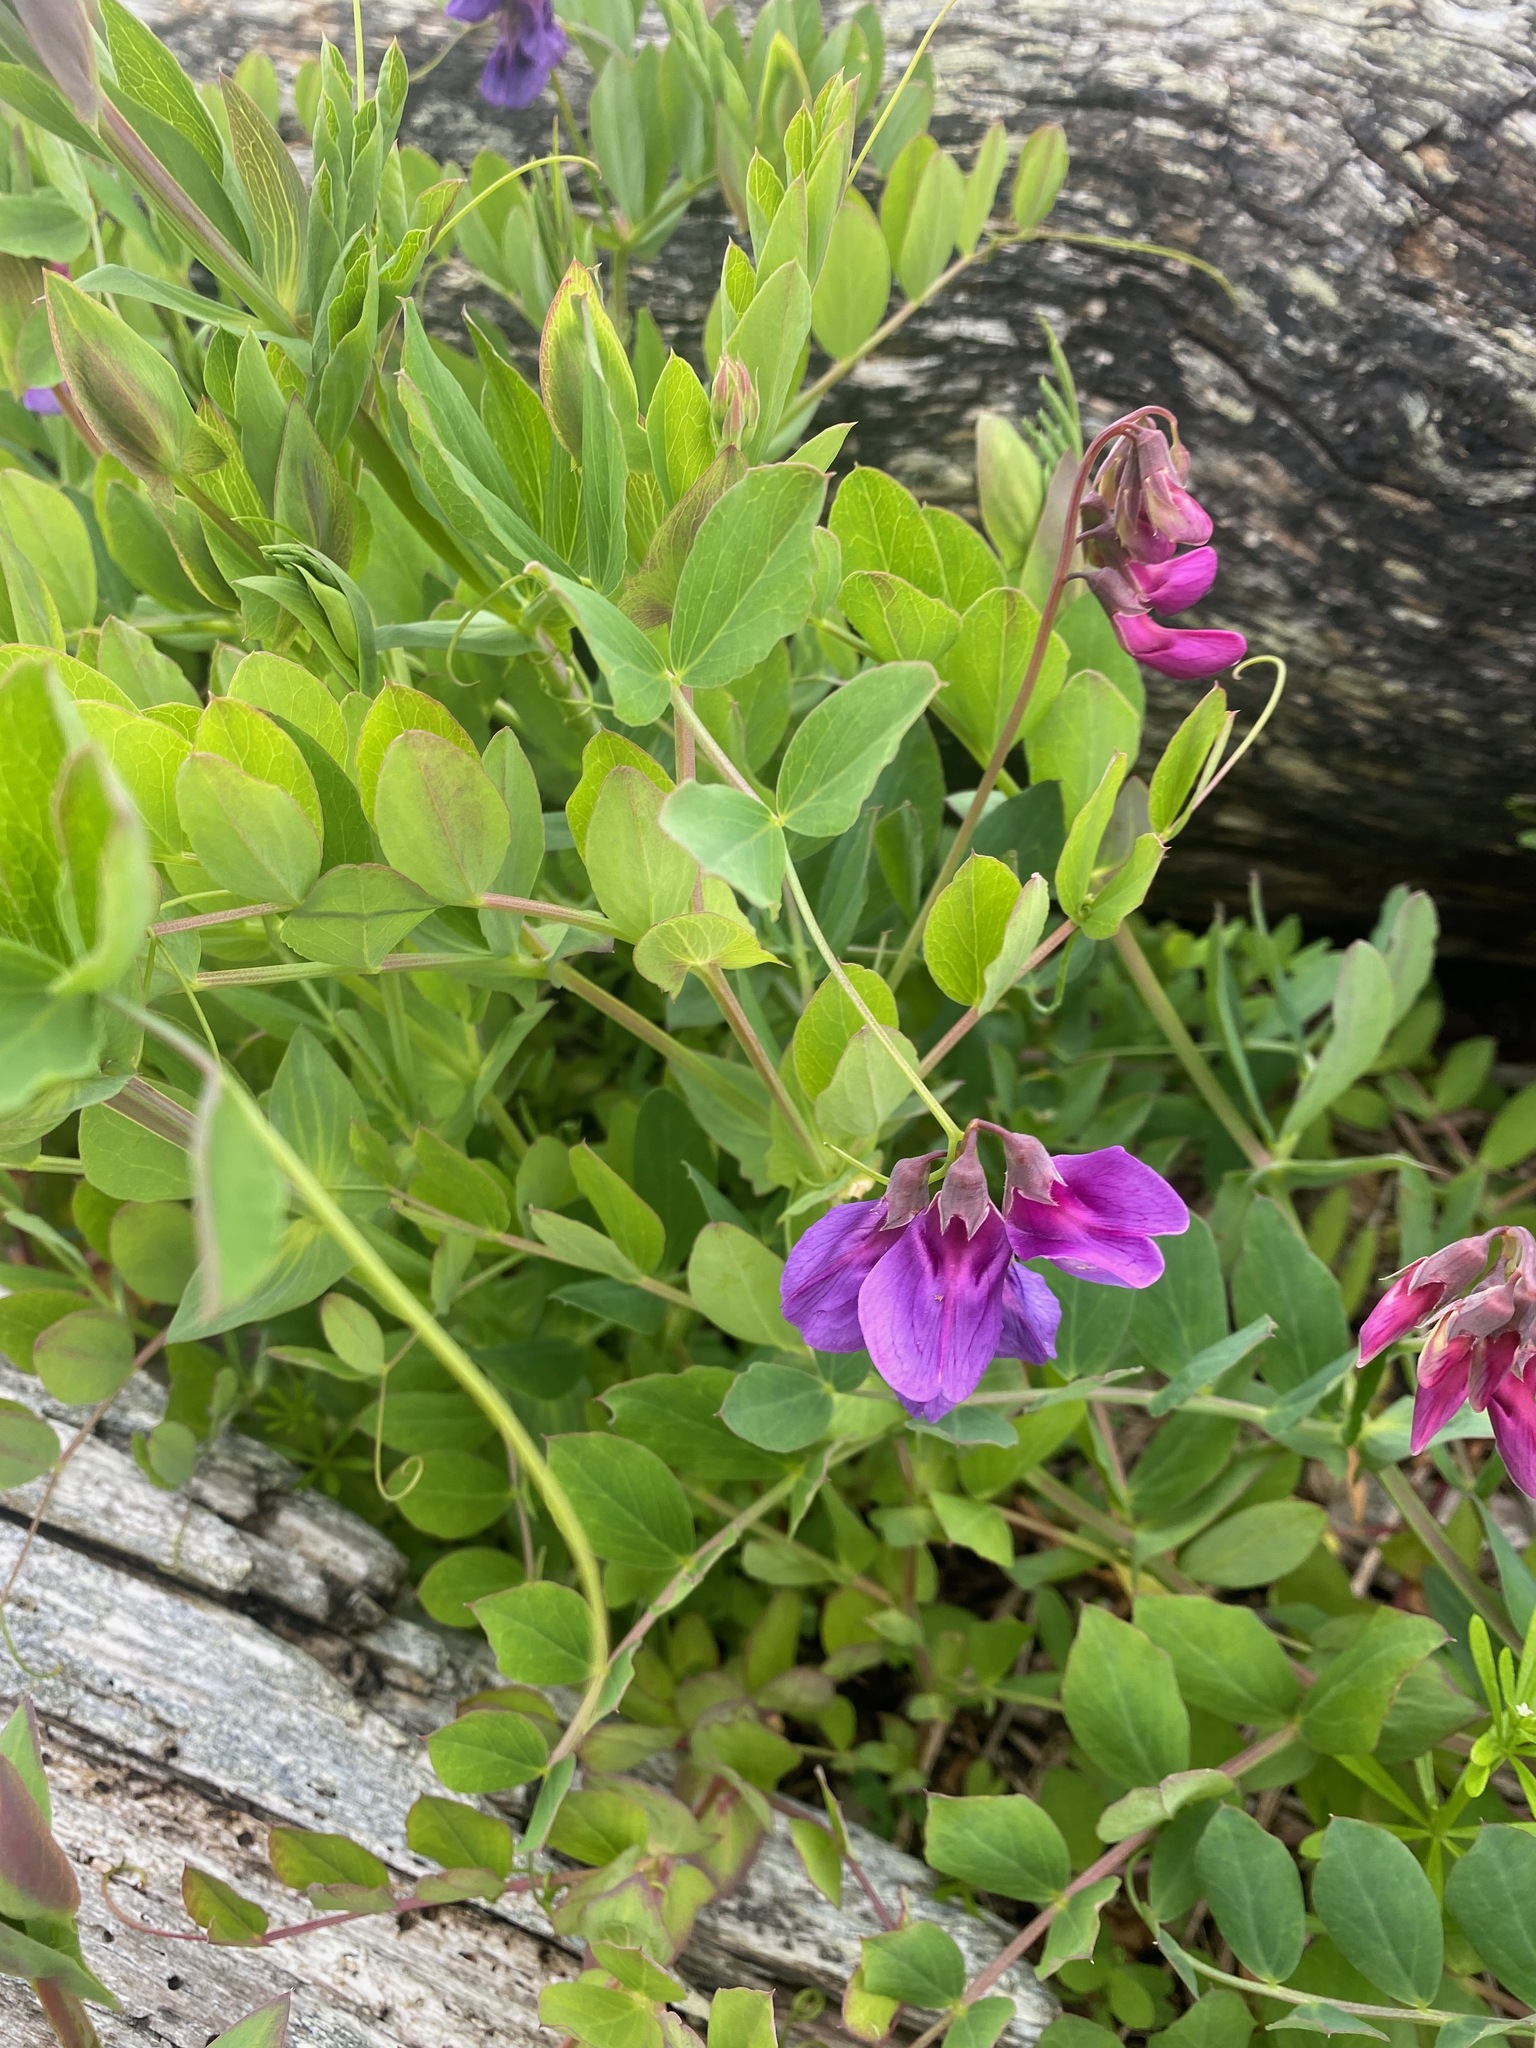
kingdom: Plantae
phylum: Tracheophyta
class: Magnoliopsida
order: Fabales
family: Fabaceae
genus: Lathyrus
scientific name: Lathyrus japonicus
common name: Sea pea
